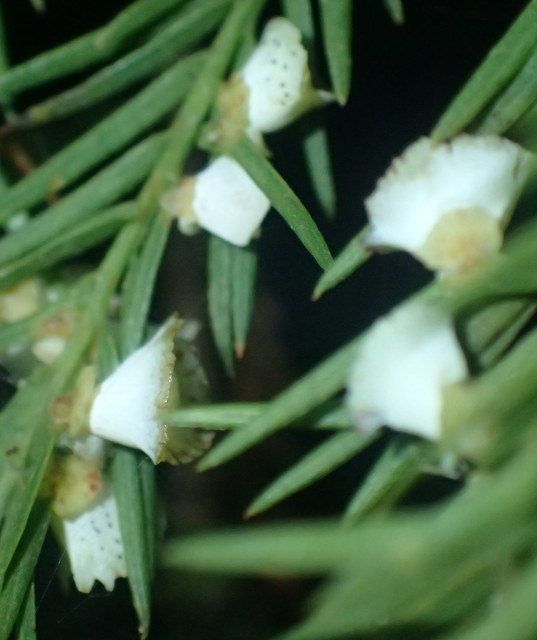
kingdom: Animalia
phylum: Arthropoda
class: Insecta
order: Diptera
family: Cecidomyiidae
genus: Taxodiomyia
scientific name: Taxodiomyia cupressi
